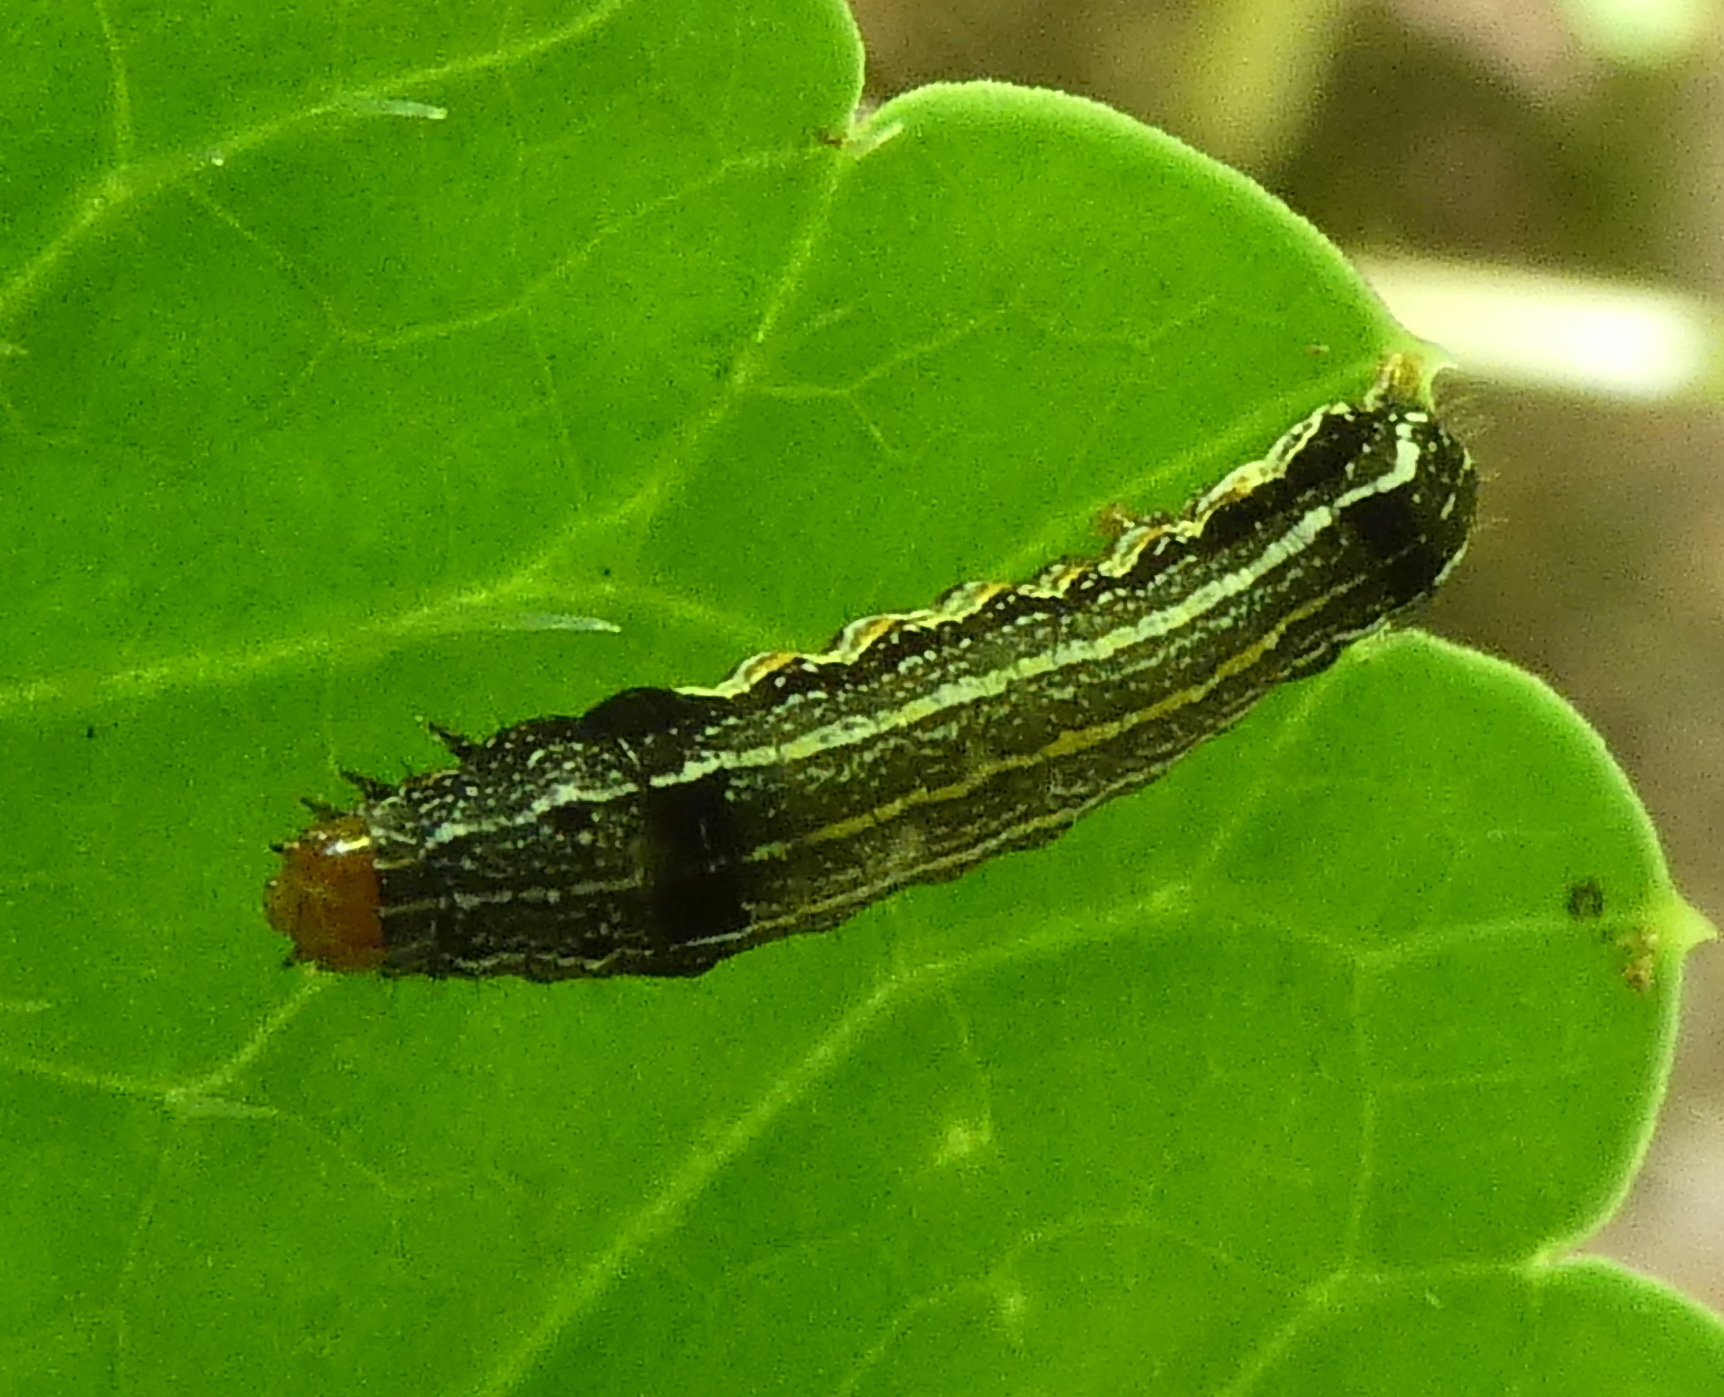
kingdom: Animalia
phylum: Arthropoda
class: Insecta
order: Lepidoptera
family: Noctuidae
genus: Spodoptera
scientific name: Spodoptera eridania
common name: Southern army worm
